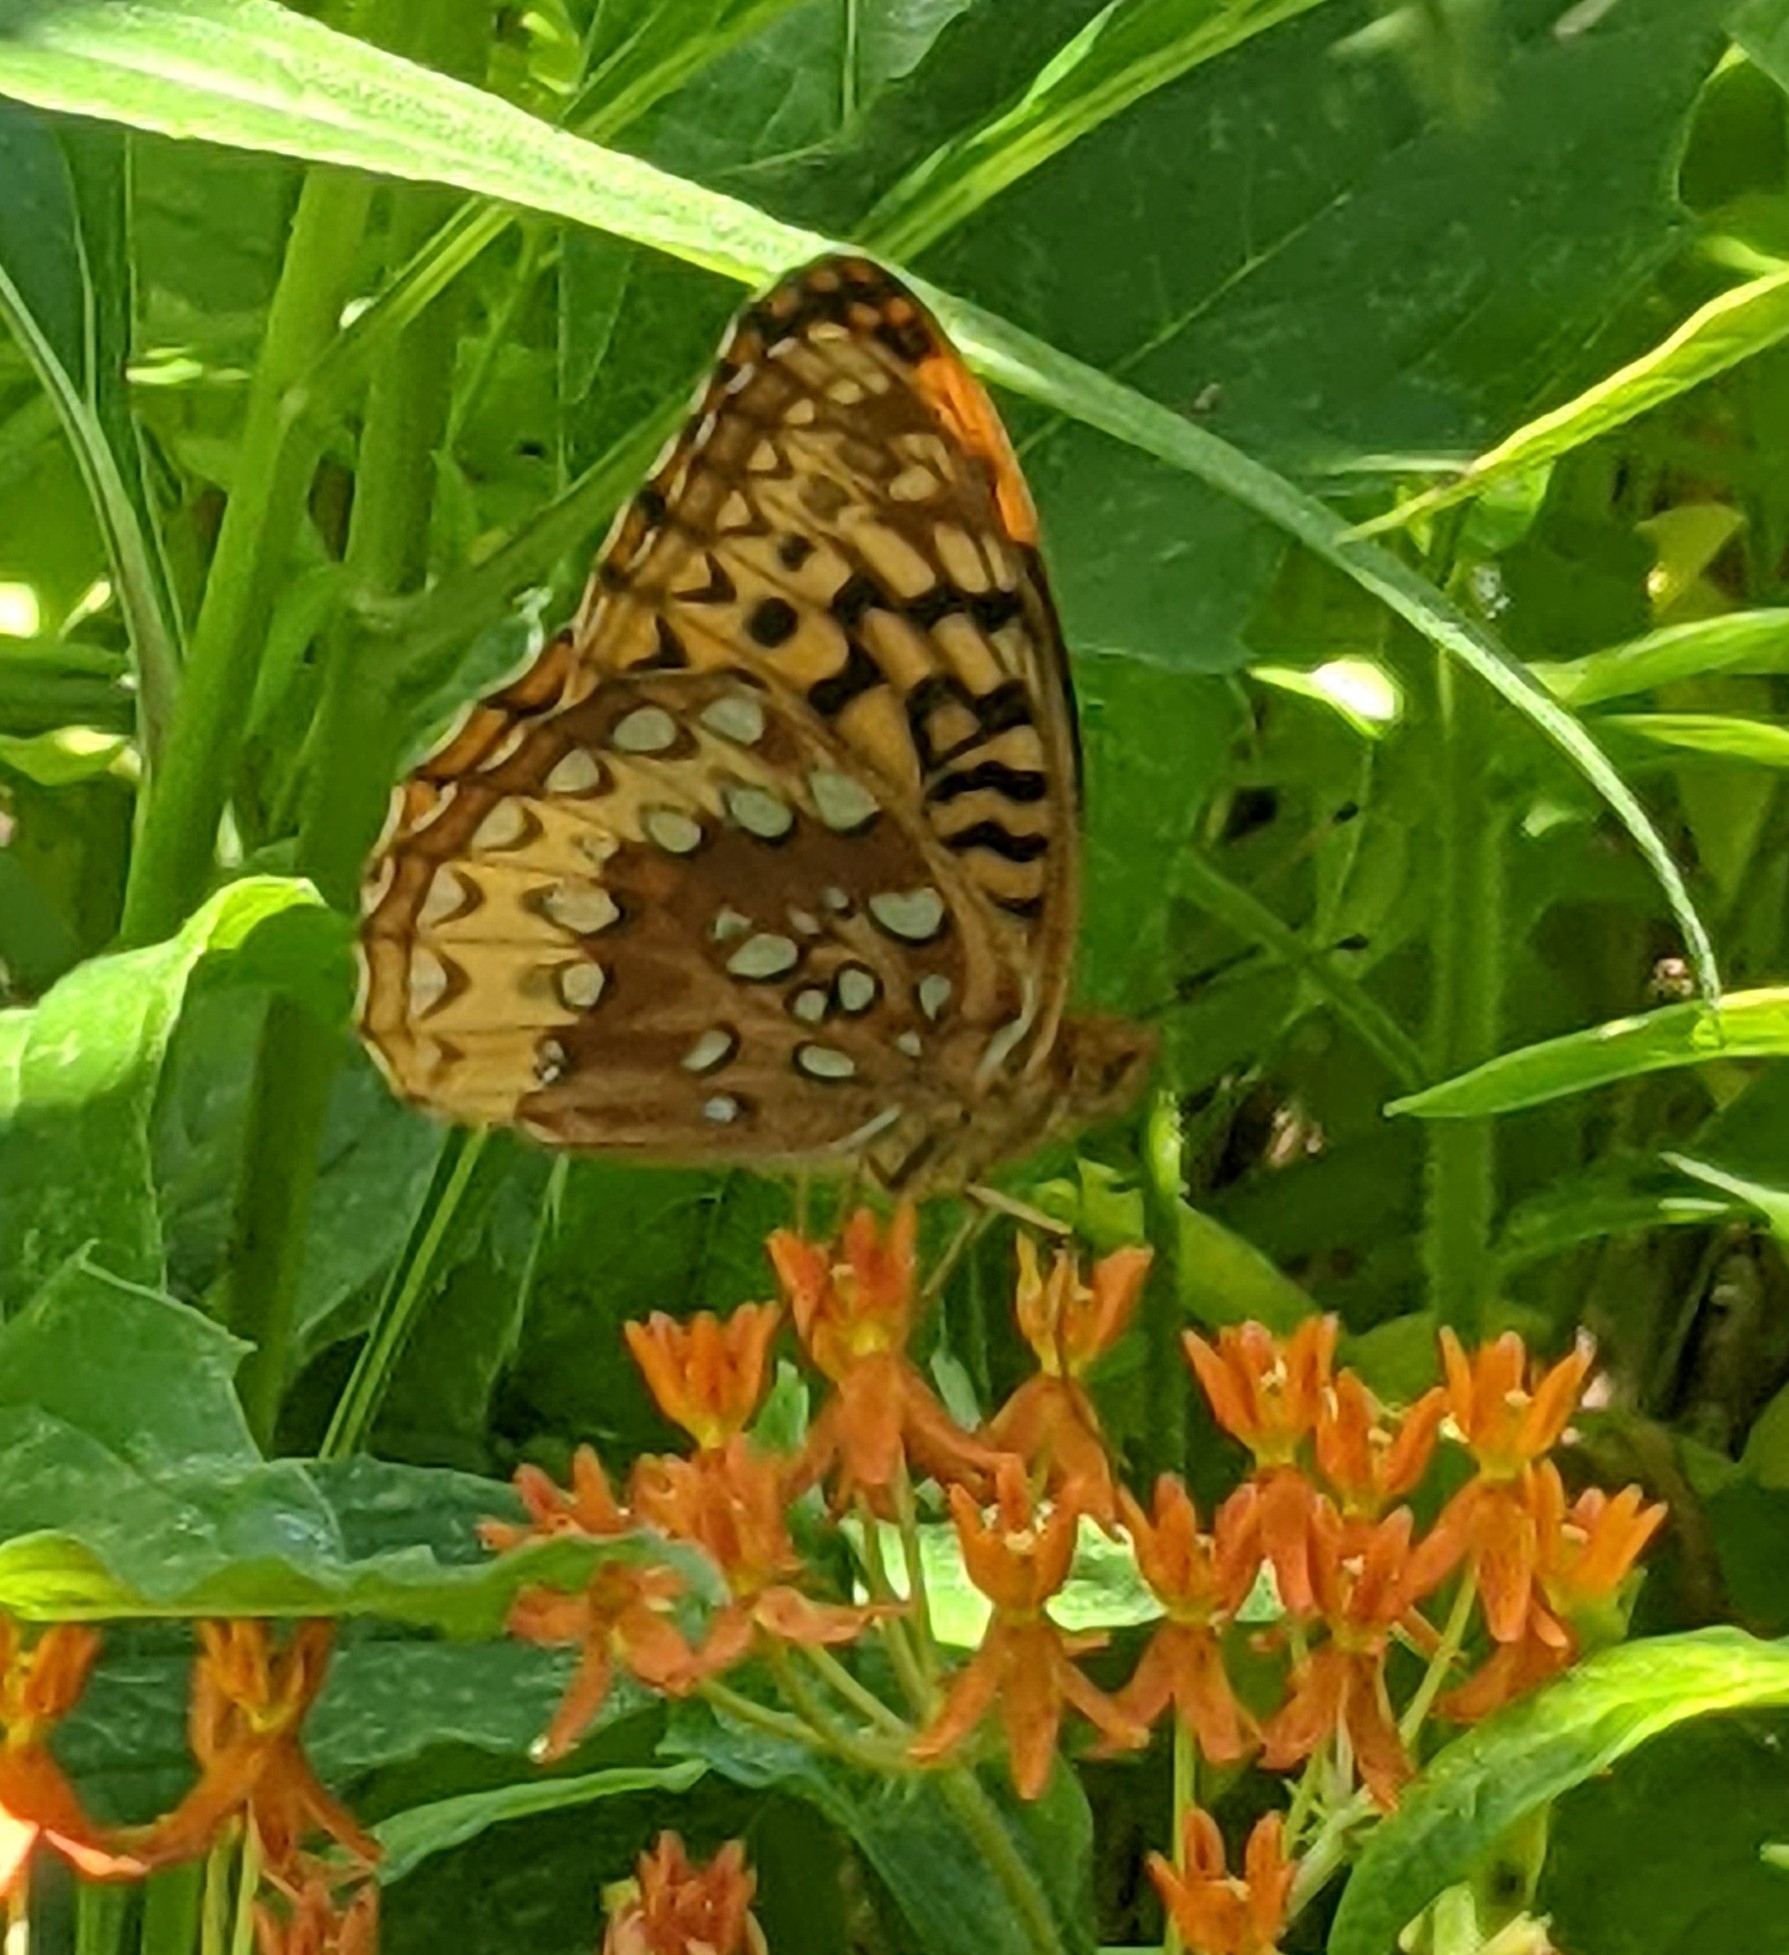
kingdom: Animalia
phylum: Arthropoda
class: Insecta
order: Lepidoptera
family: Nymphalidae
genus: Speyeria
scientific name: Speyeria cybele
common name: Great spangled fritillary
